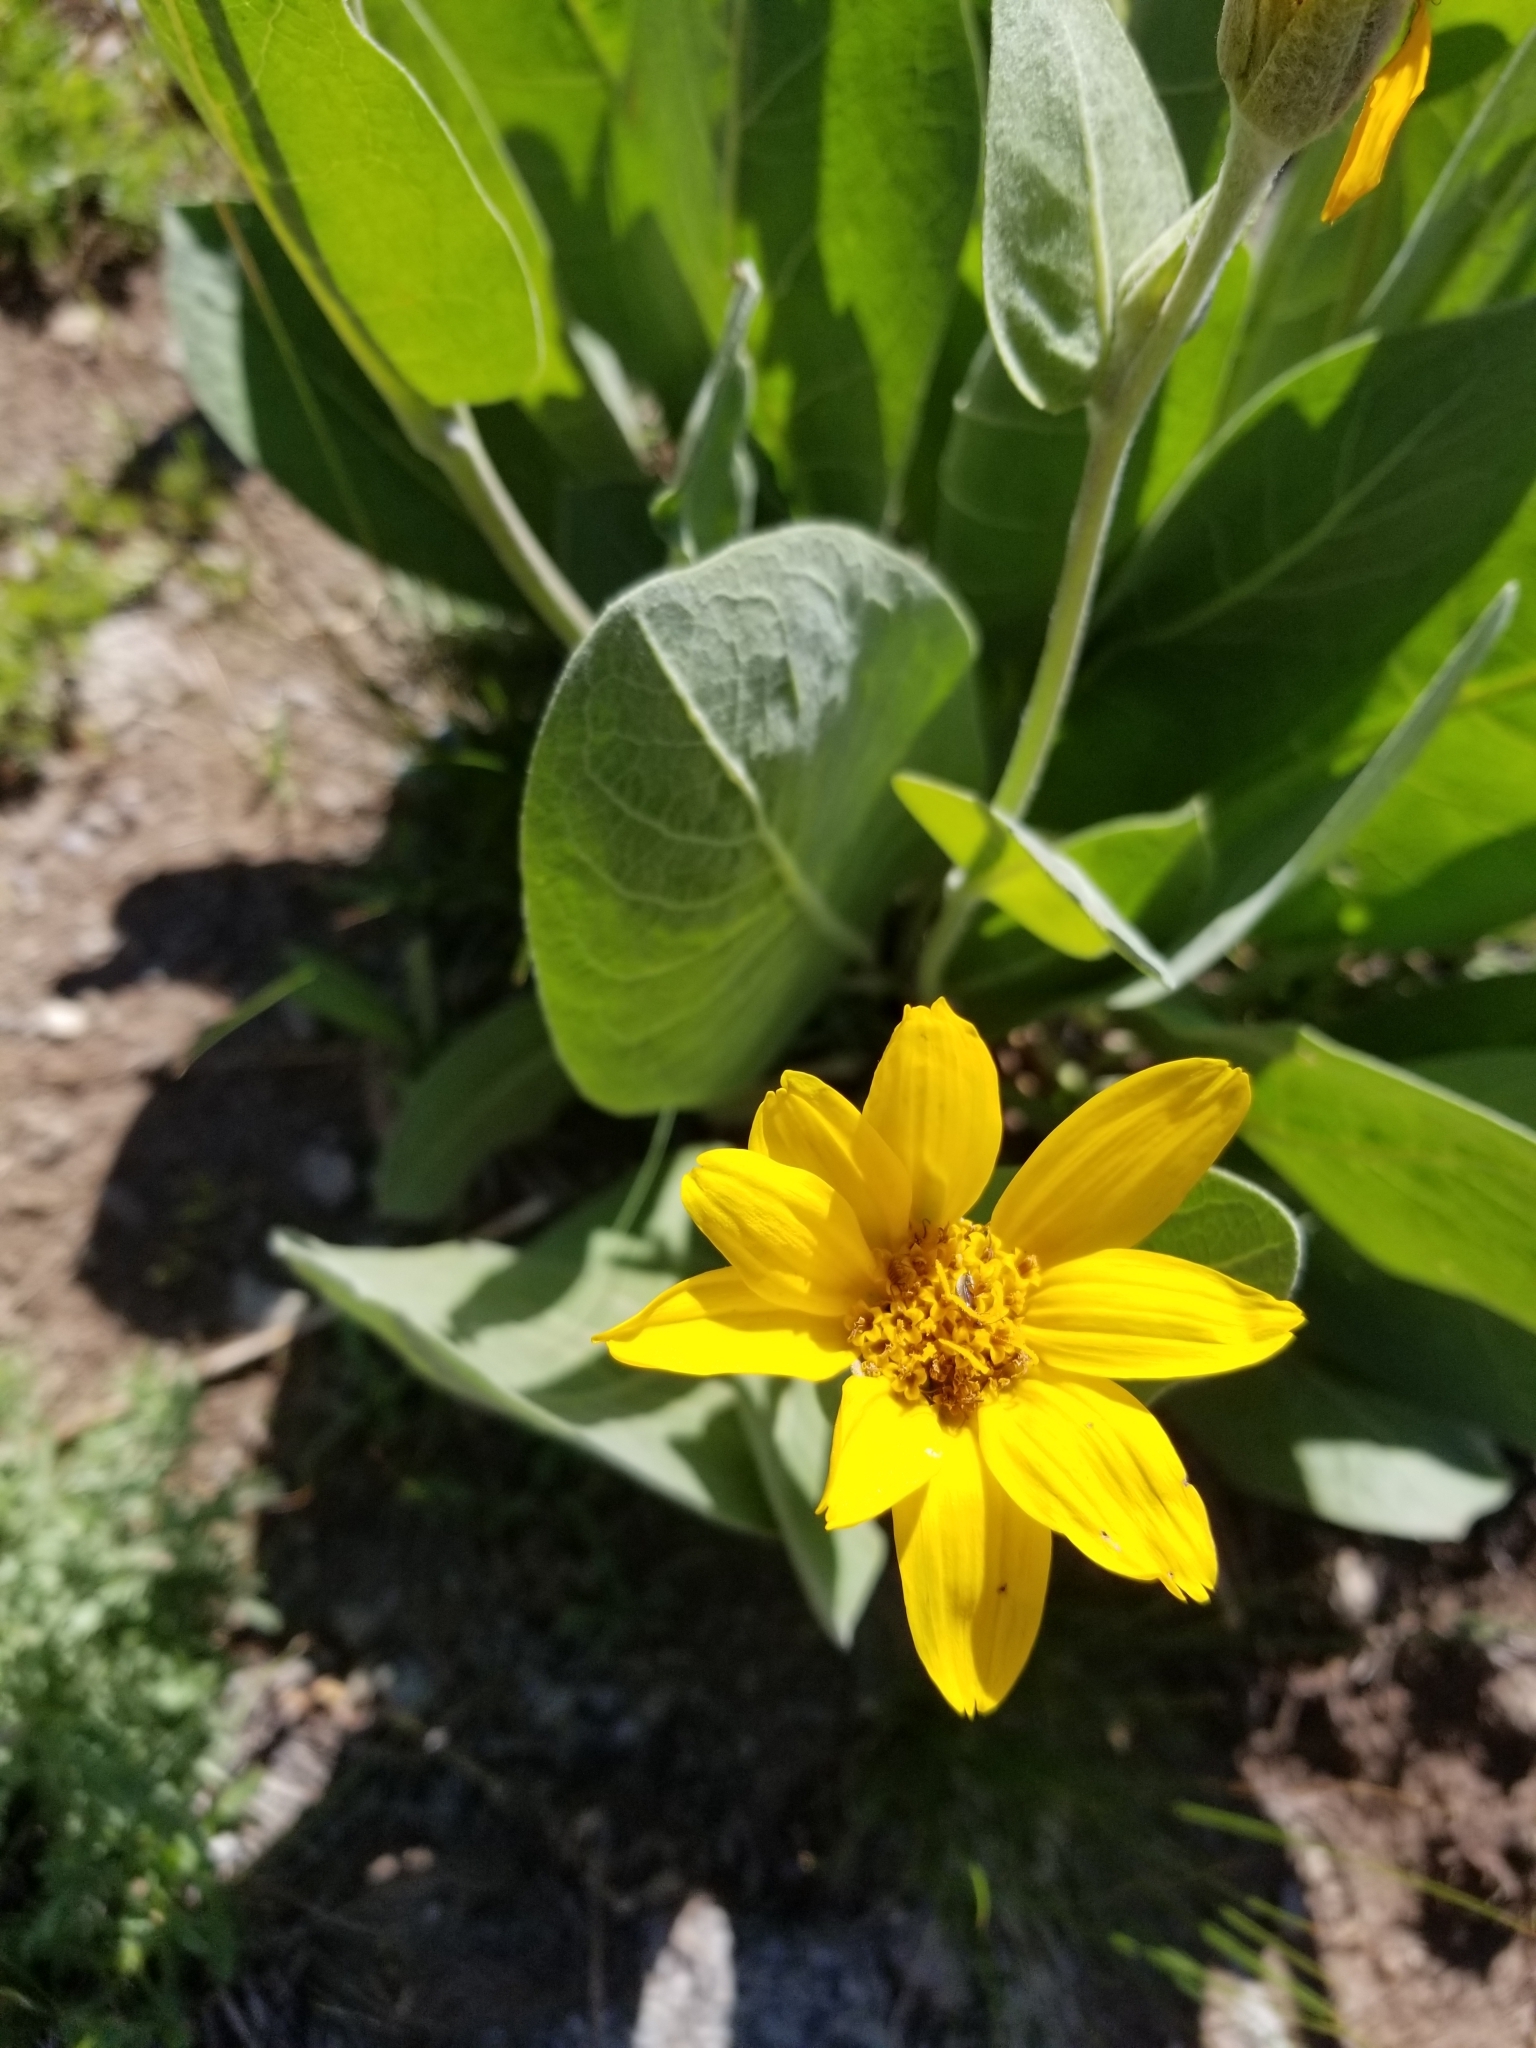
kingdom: Plantae
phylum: Tracheophyta
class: Magnoliopsida
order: Asterales
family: Asteraceae
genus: Wyethia
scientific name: Wyethia mollis
